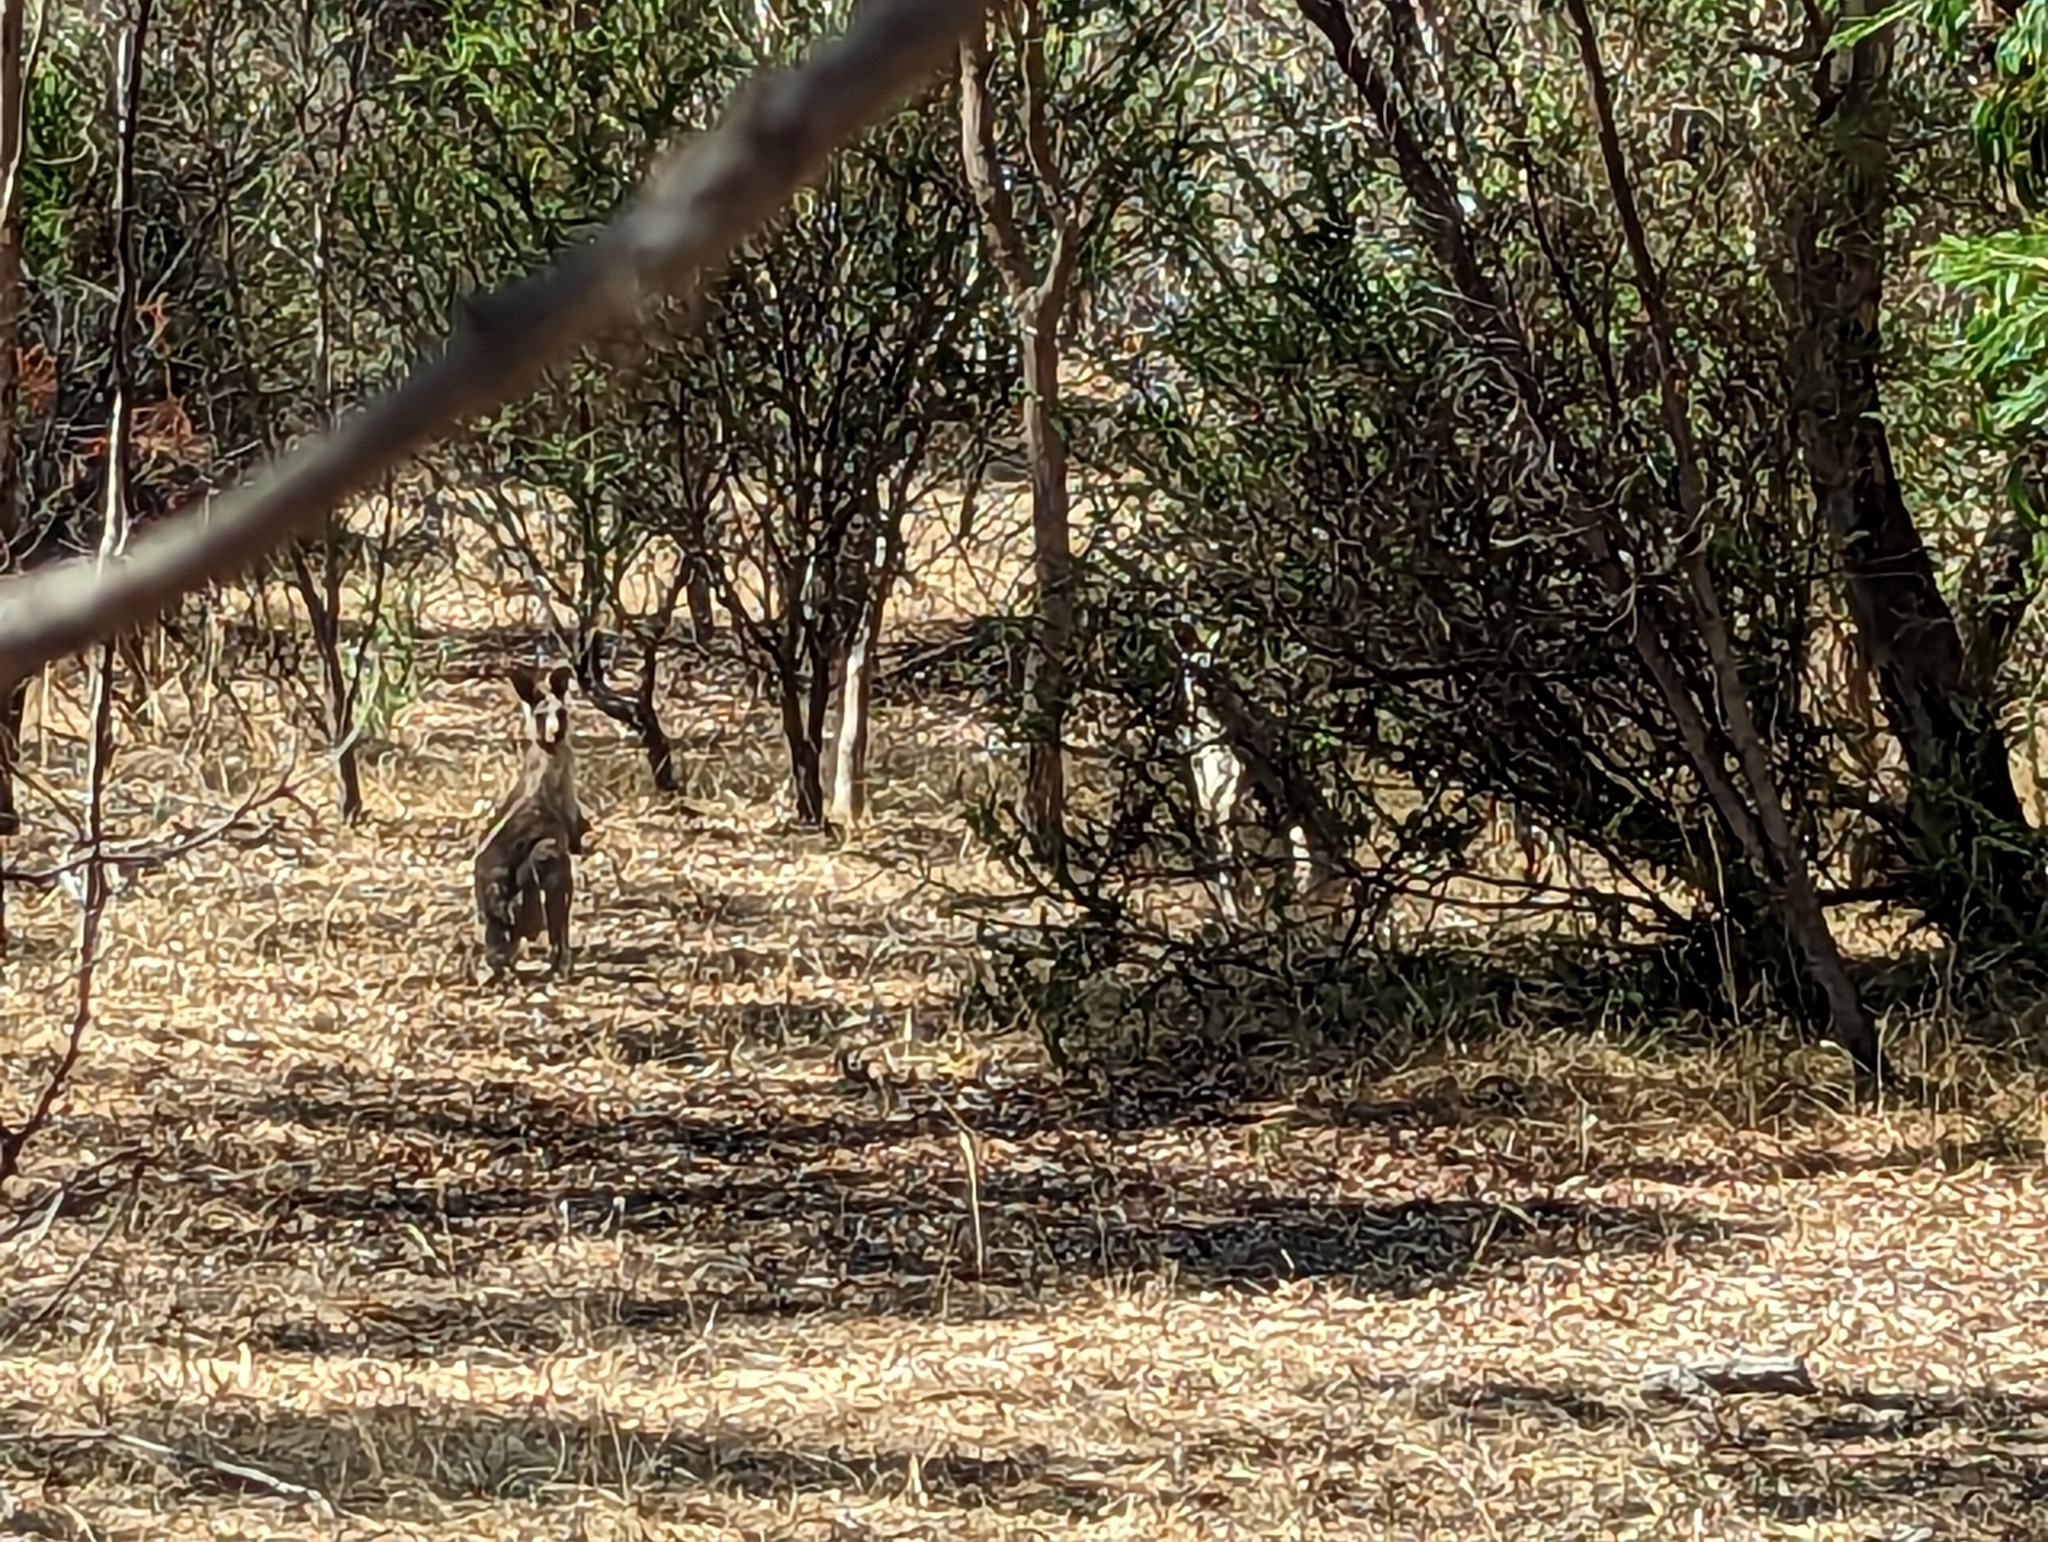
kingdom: Animalia
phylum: Chordata
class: Mammalia
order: Diprotodontia
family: Macropodidae
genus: Macropus
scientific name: Macropus giganteus
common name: Eastern grey kangaroo
